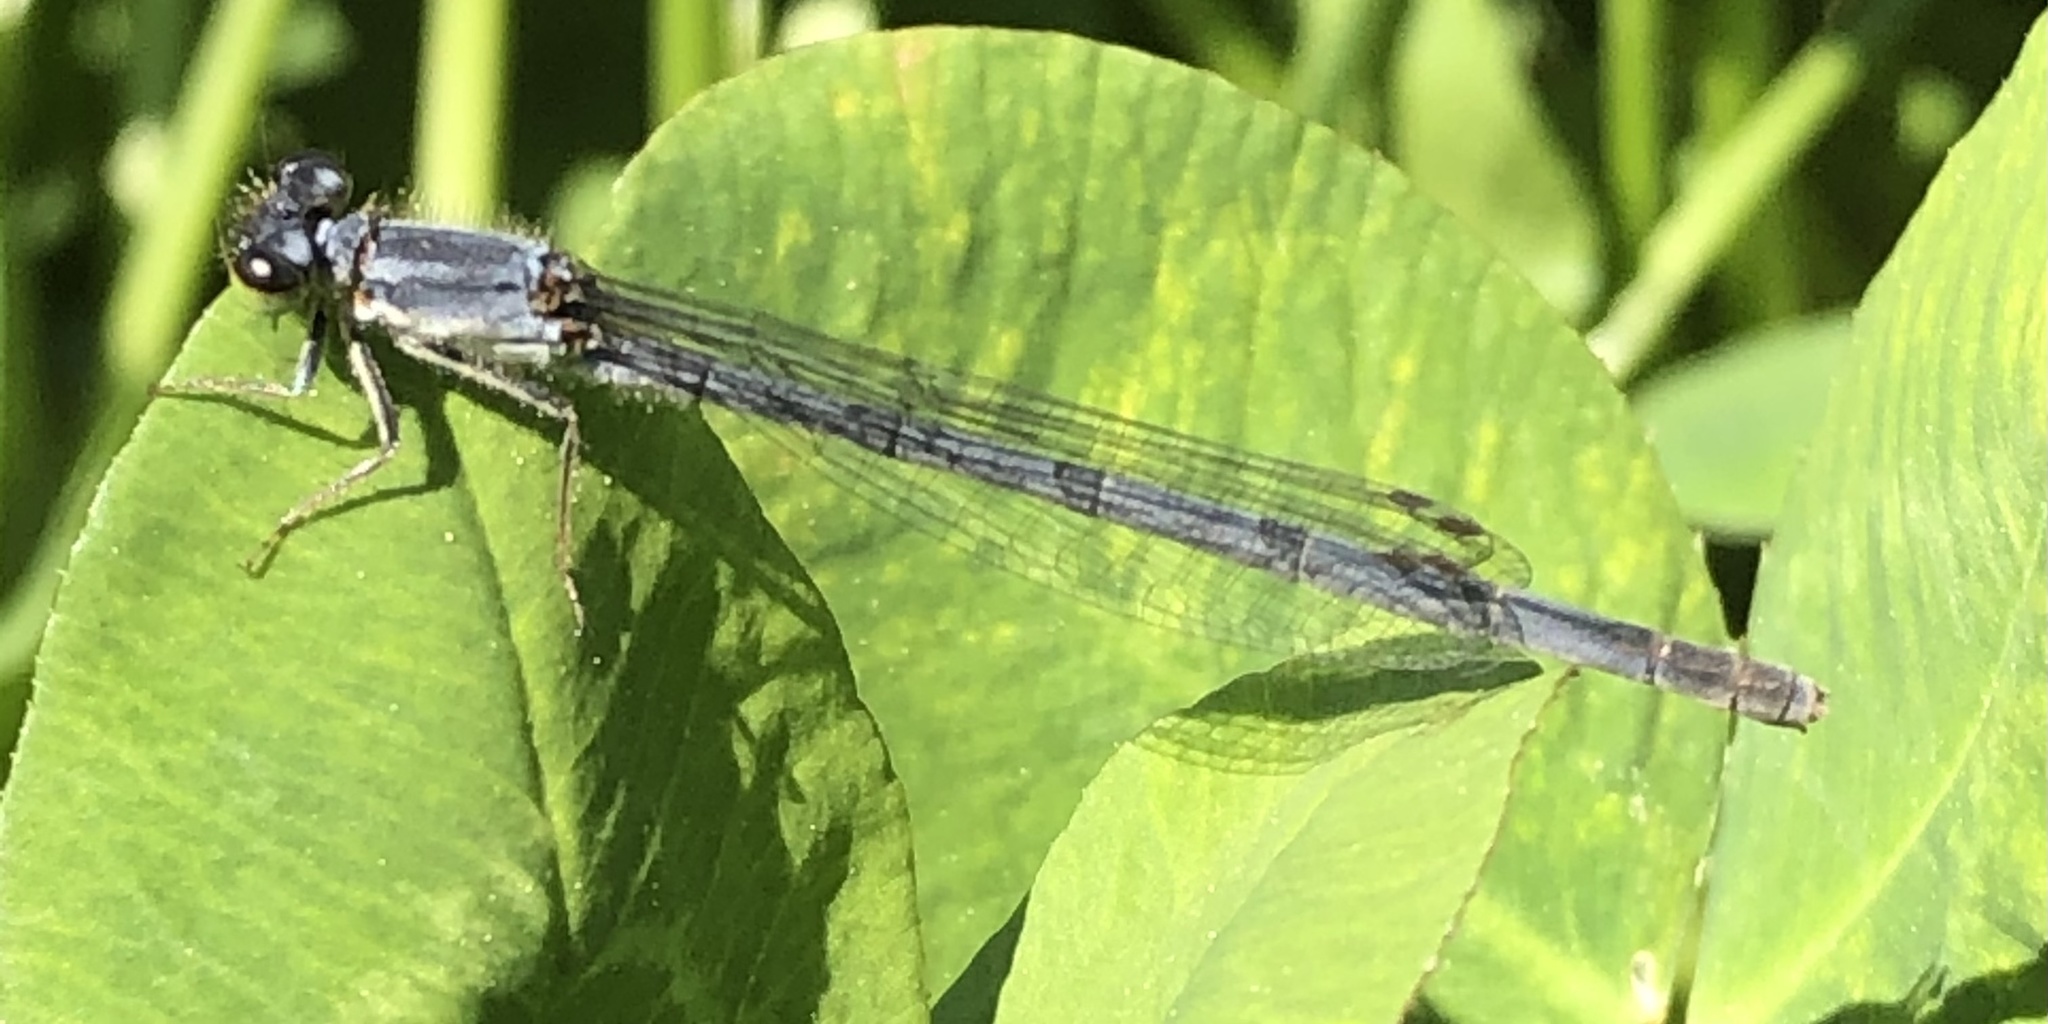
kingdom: Animalia
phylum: Arthropoda
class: Insecta
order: Odonata
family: Coenagrionidae
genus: Ischnura
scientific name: Ischnura posita
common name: Fragile forktail
